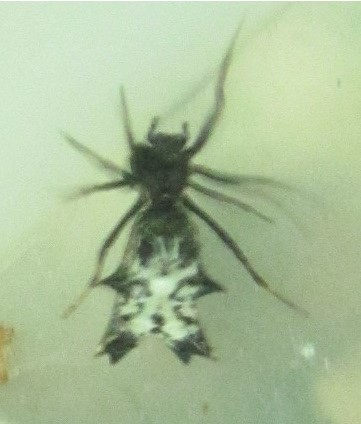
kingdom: Animalia
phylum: Arthropoda
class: Arachnida
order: Araneae
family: Araneidae
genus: Micrathena
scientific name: Micrathena gracilis
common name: Orb weavers
